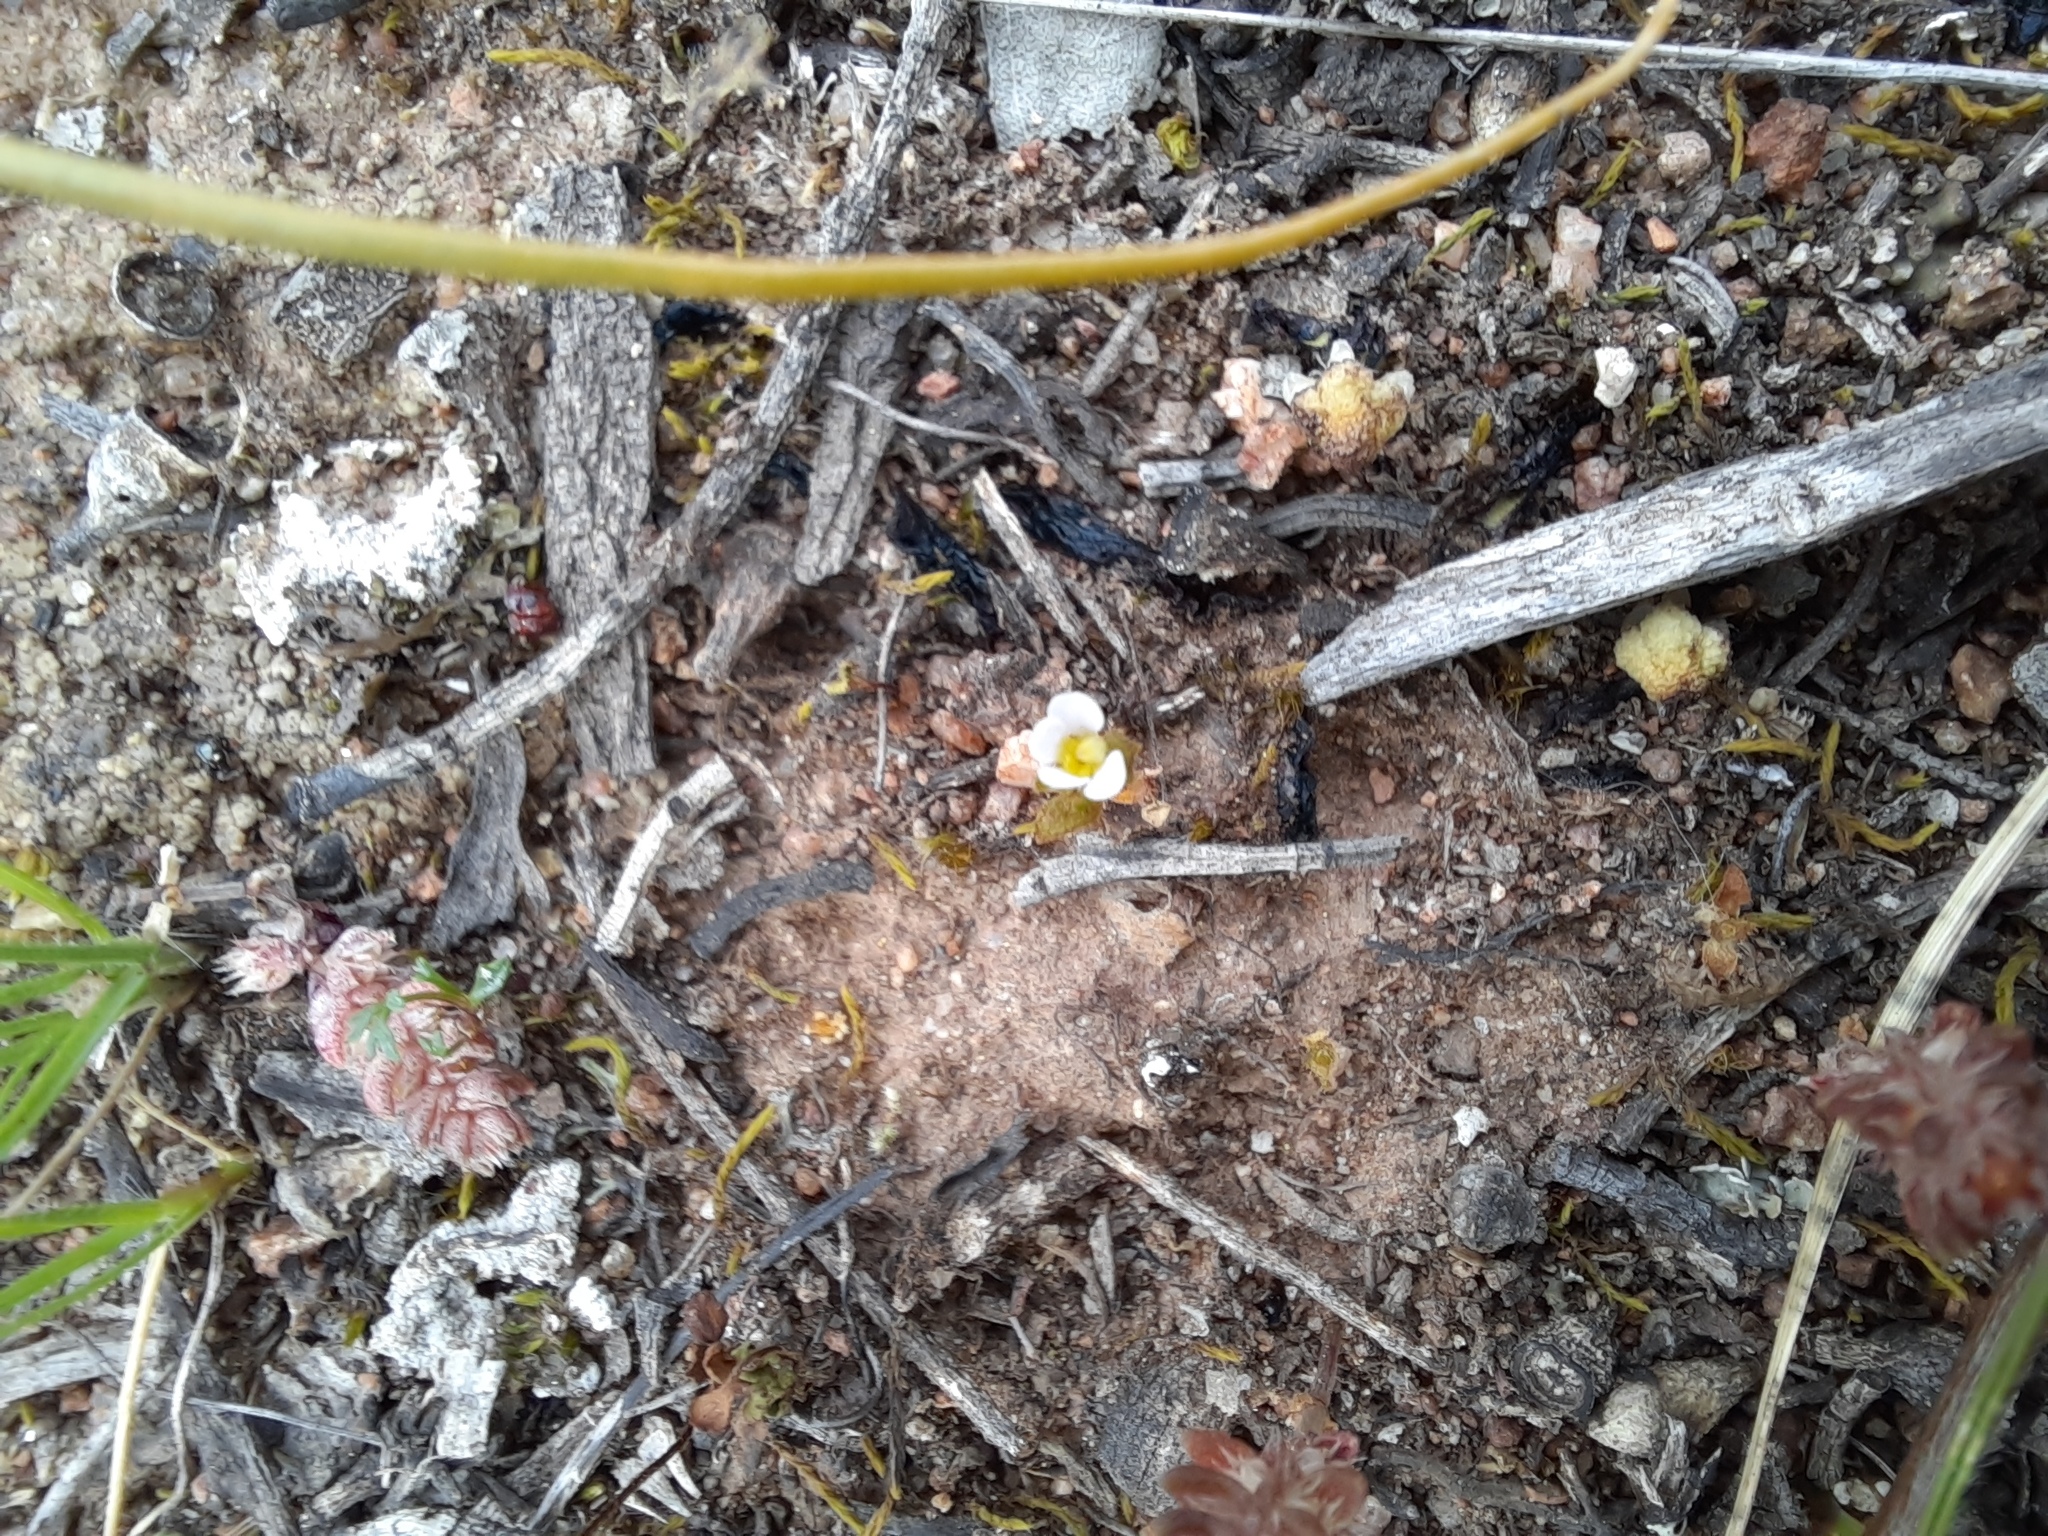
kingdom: Plantae
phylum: Tracheophyta
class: Magnoliopsida
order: Asterales
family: Stylidiaceae
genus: Levenhookia
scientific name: Levenhookia dubia
